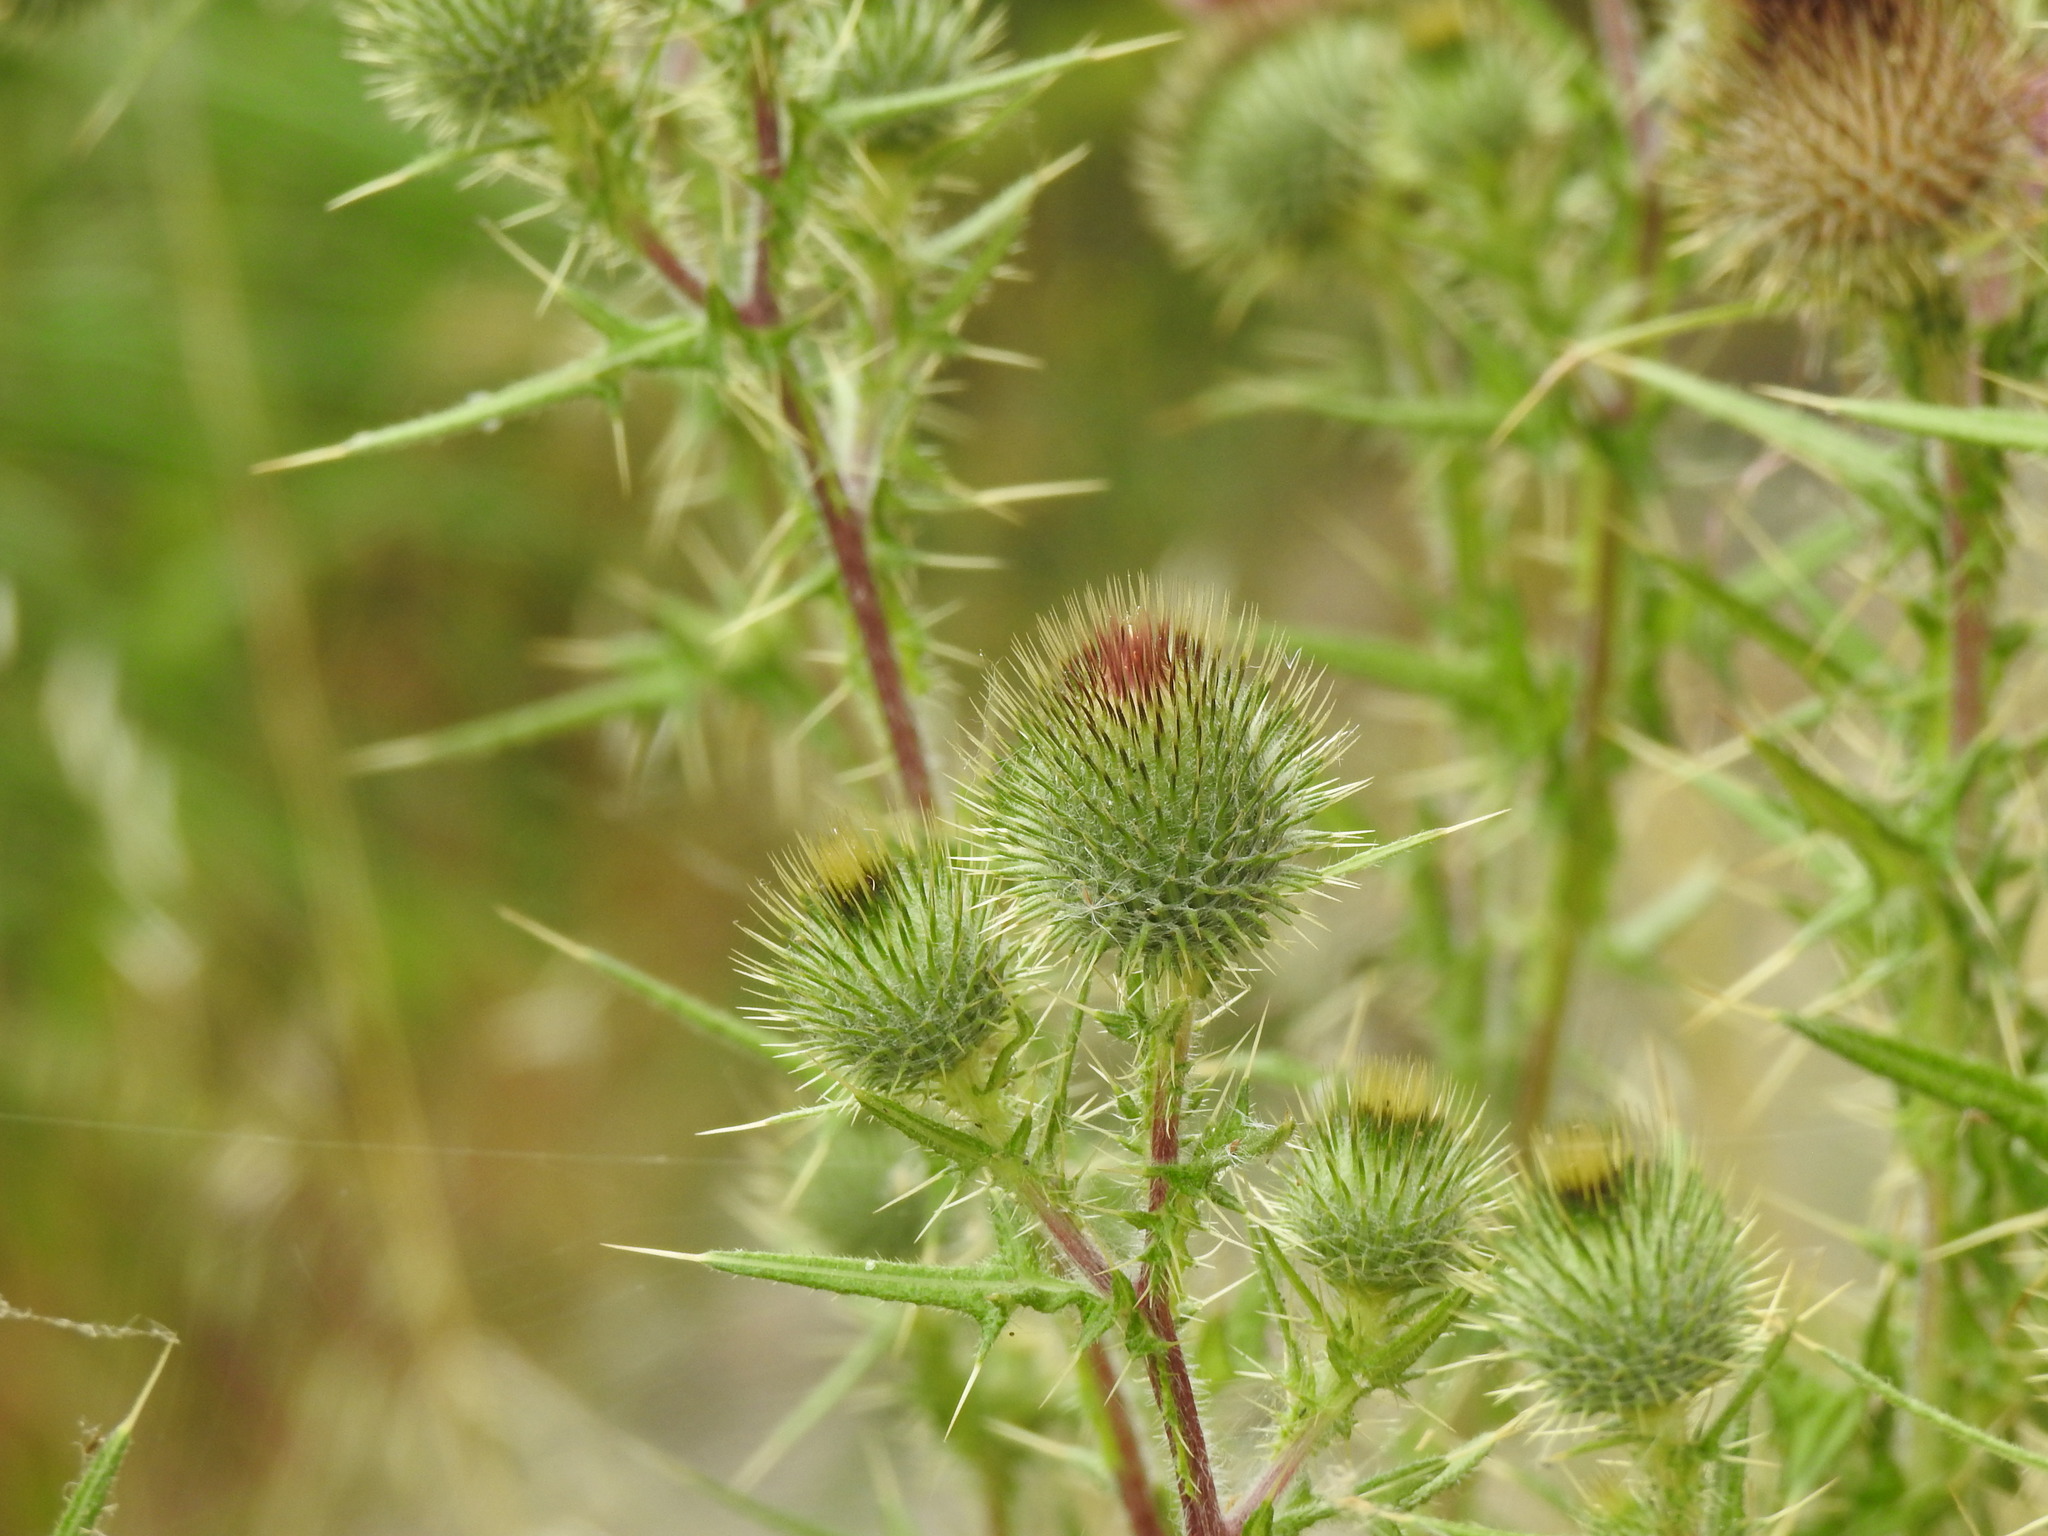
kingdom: Plantae
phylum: Tracheophyta
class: Magnoliopsida
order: Asterales
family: Asteraceae
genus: Cirsium
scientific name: Cirsium vulgare
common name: Bull thistle
